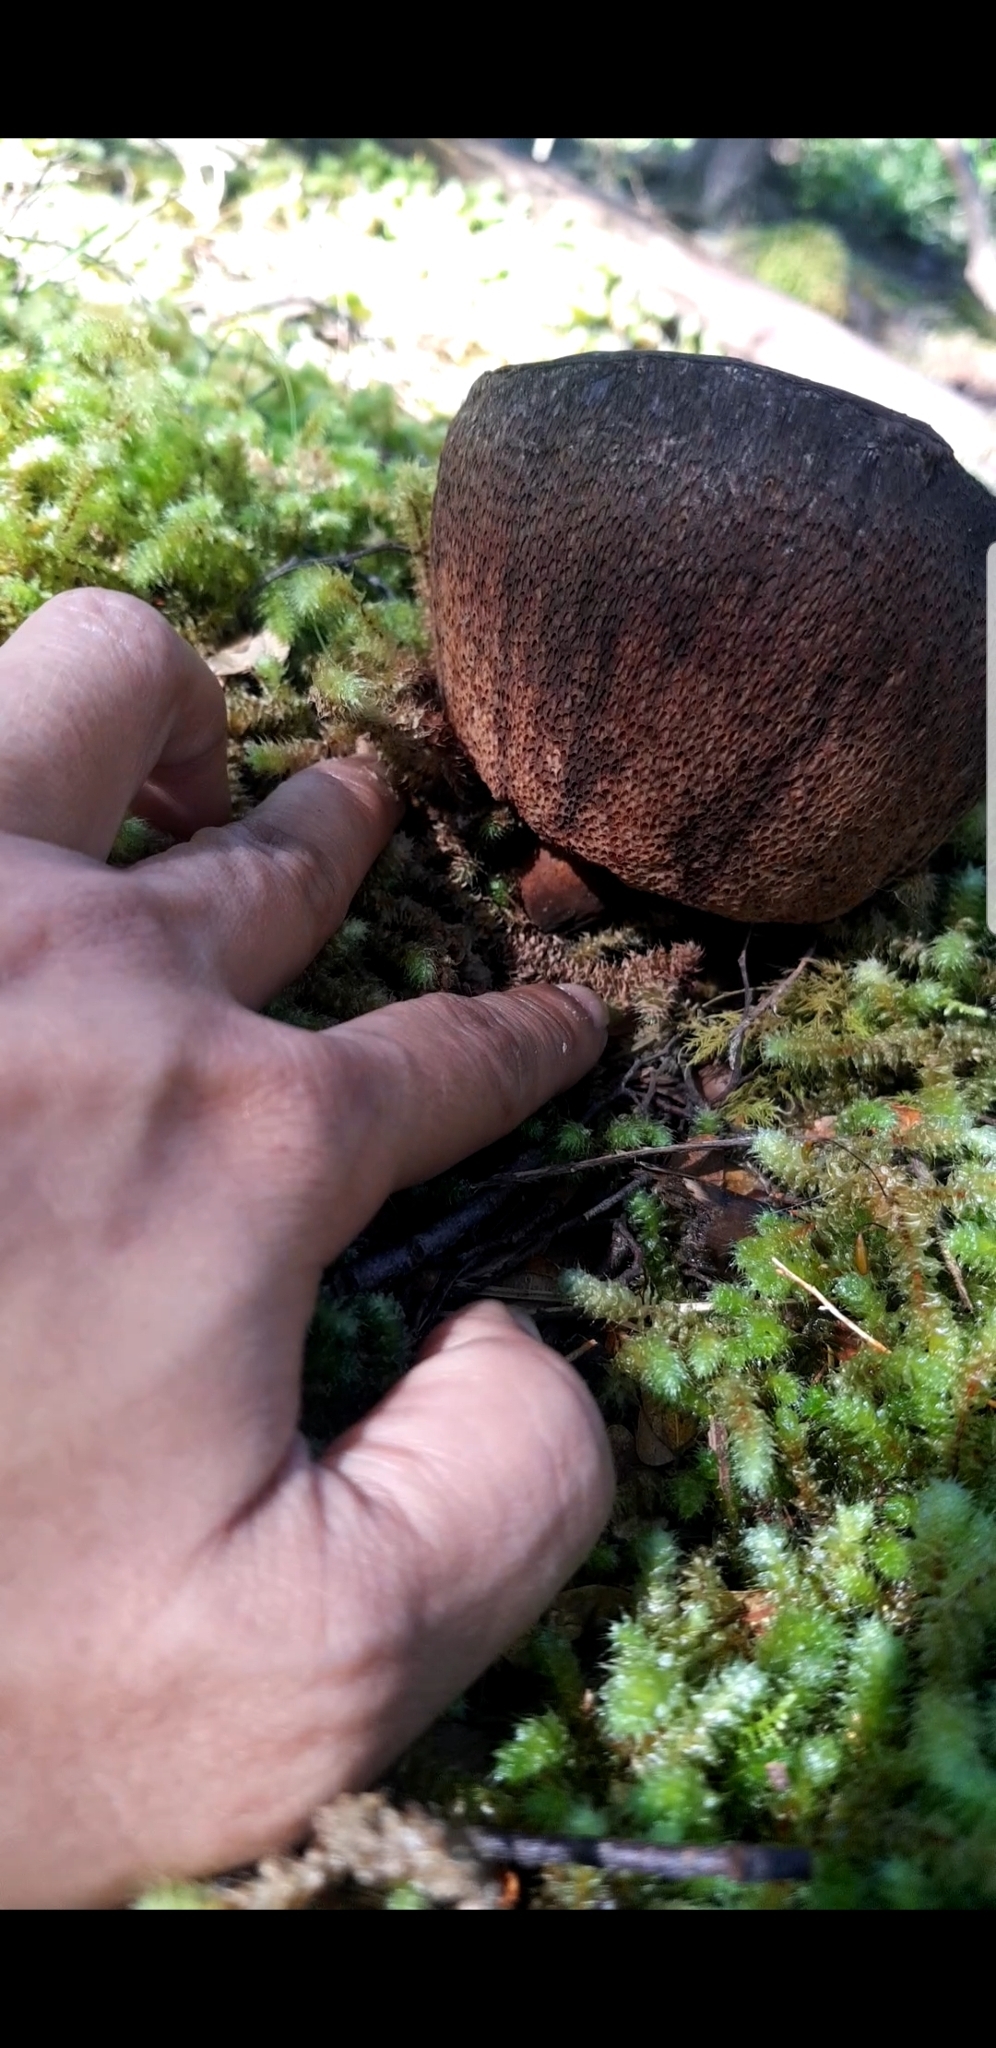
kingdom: Fungi
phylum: Basidiomycota
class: Agaricomycetes
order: Boletales
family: Boletaceae
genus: Porphyrellus
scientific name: Porphyrellus formosus
